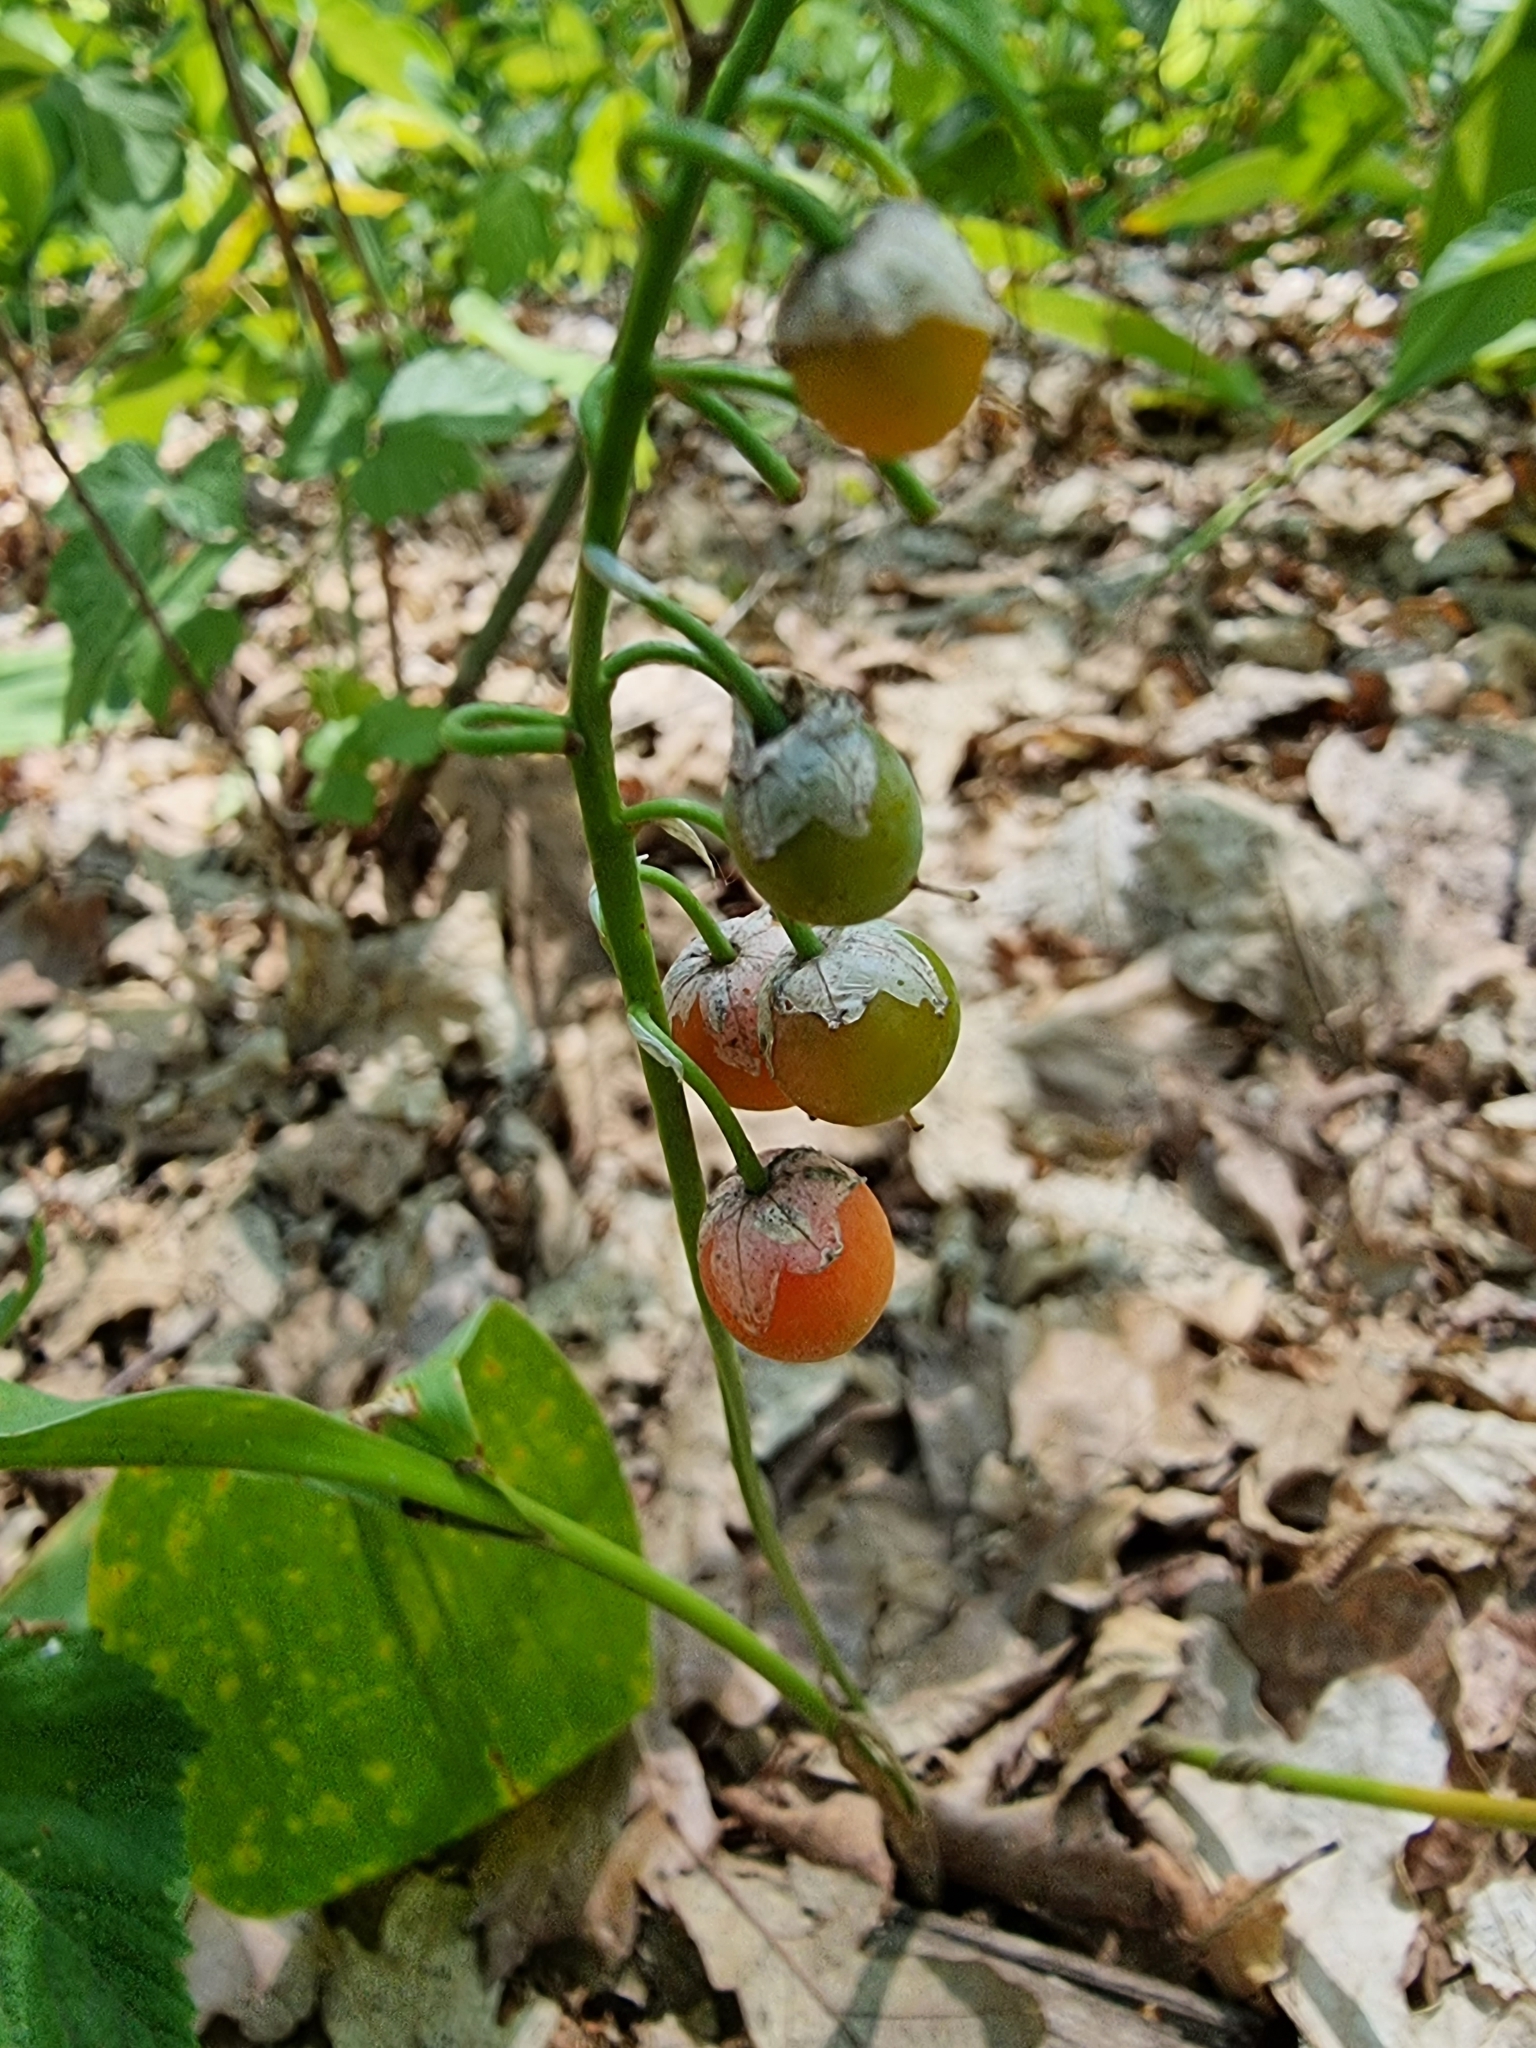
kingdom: Plantae
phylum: Tracheophyta
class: Liliopsida
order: Asparagales
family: Asparagaceae
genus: Convallaria
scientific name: Convallaria majalis
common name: Lily-of-the-valley
